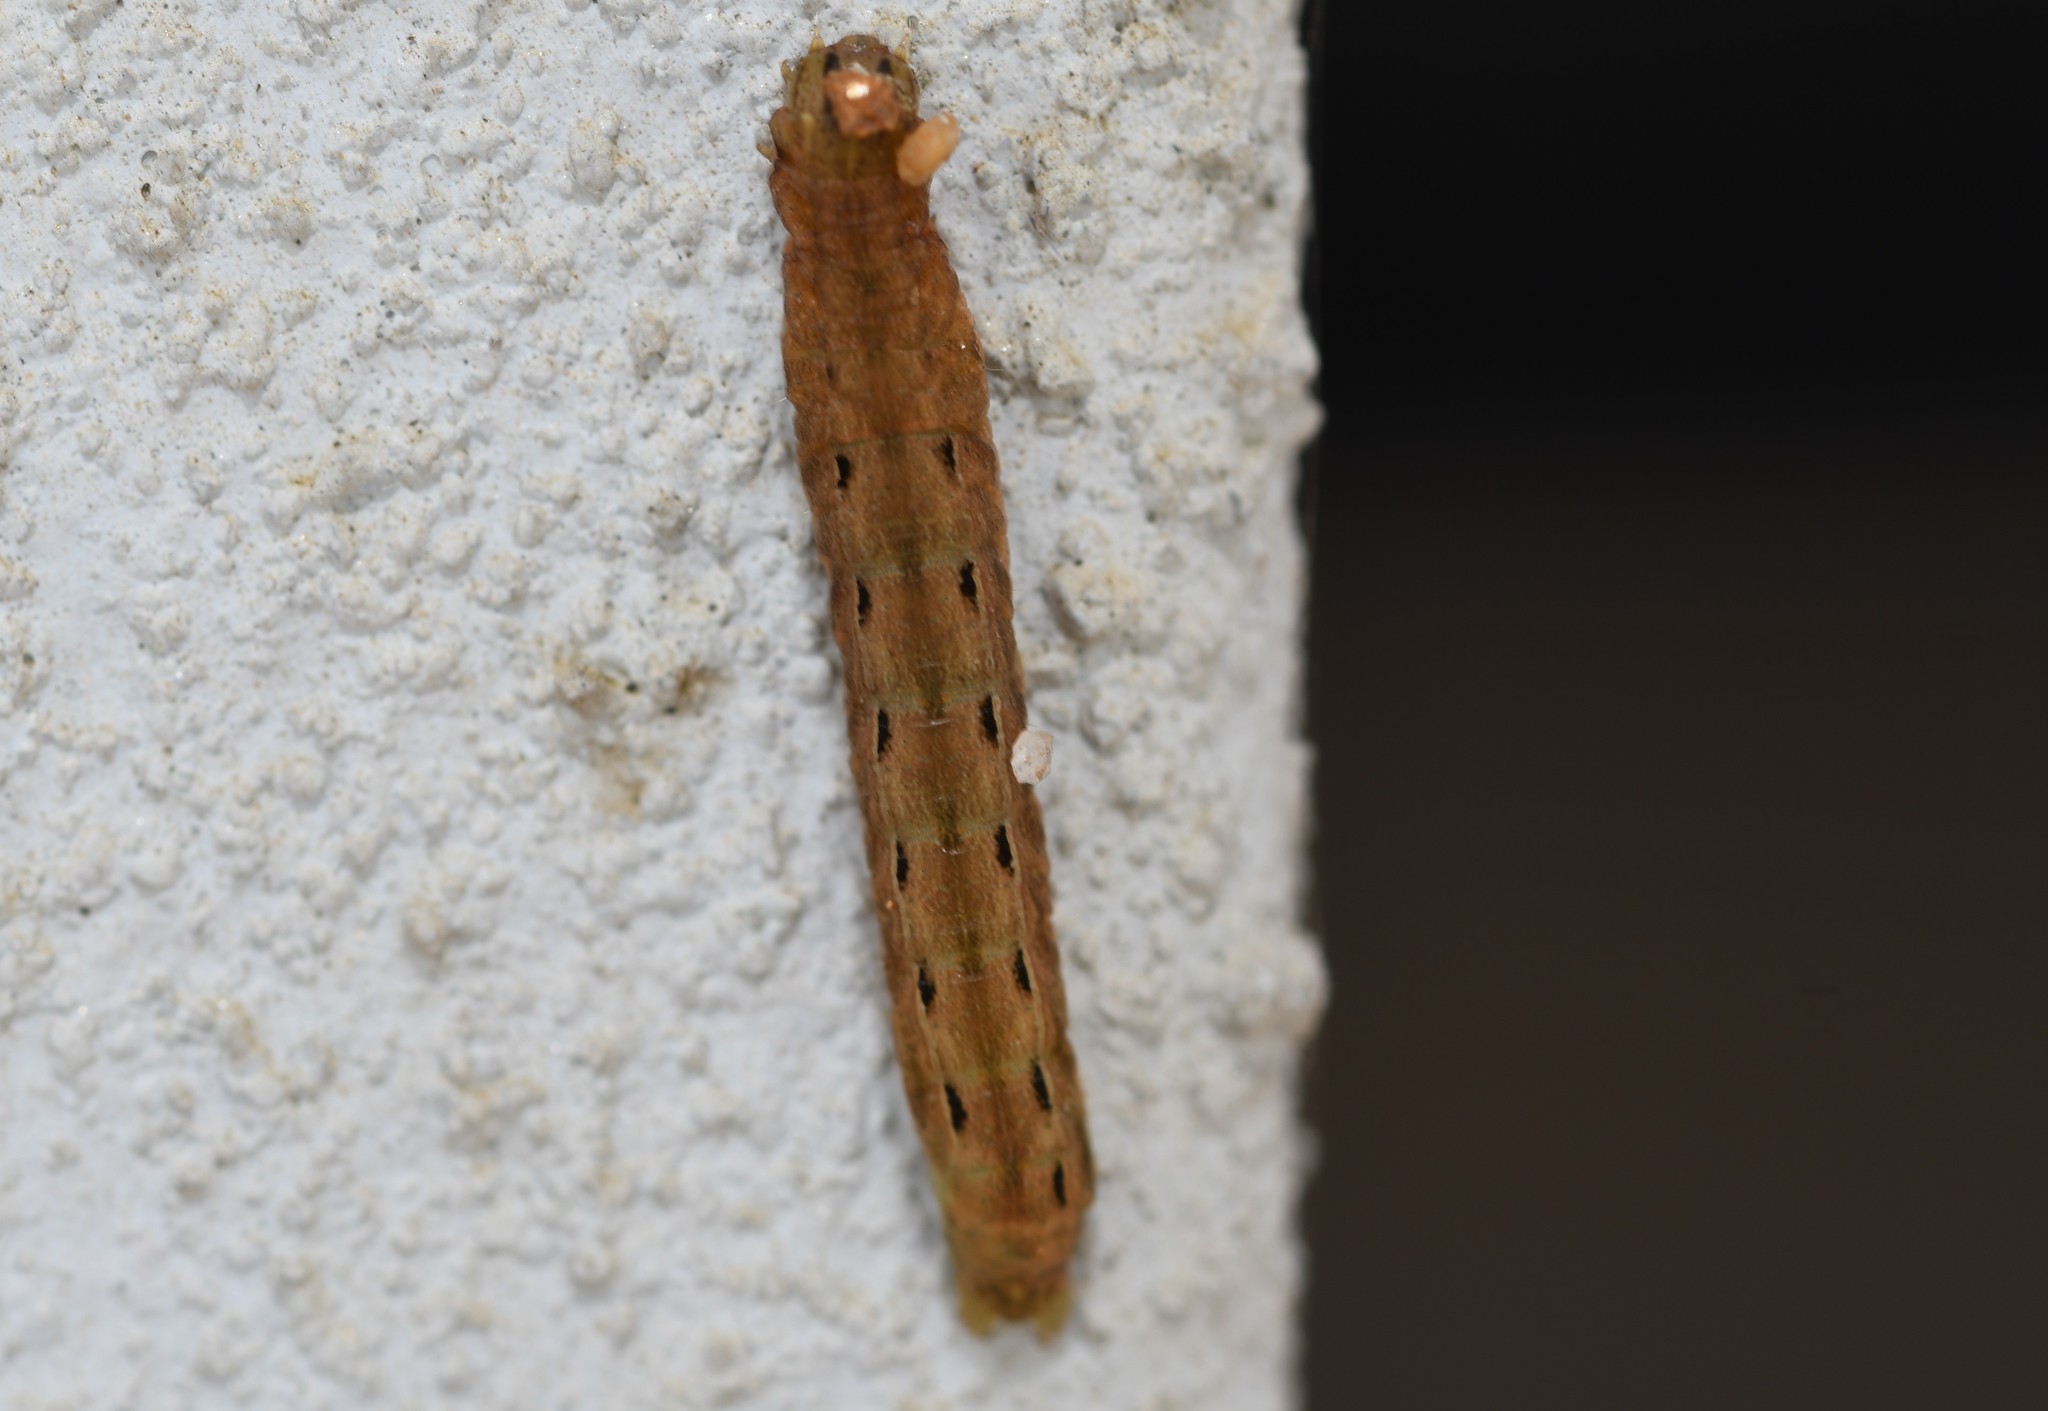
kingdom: Animalia
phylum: Arthropoda
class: Insecta
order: Lepidoptera
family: Noctuidae
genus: Noctua
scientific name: Noctua pronuba
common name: Large yellow underwing
